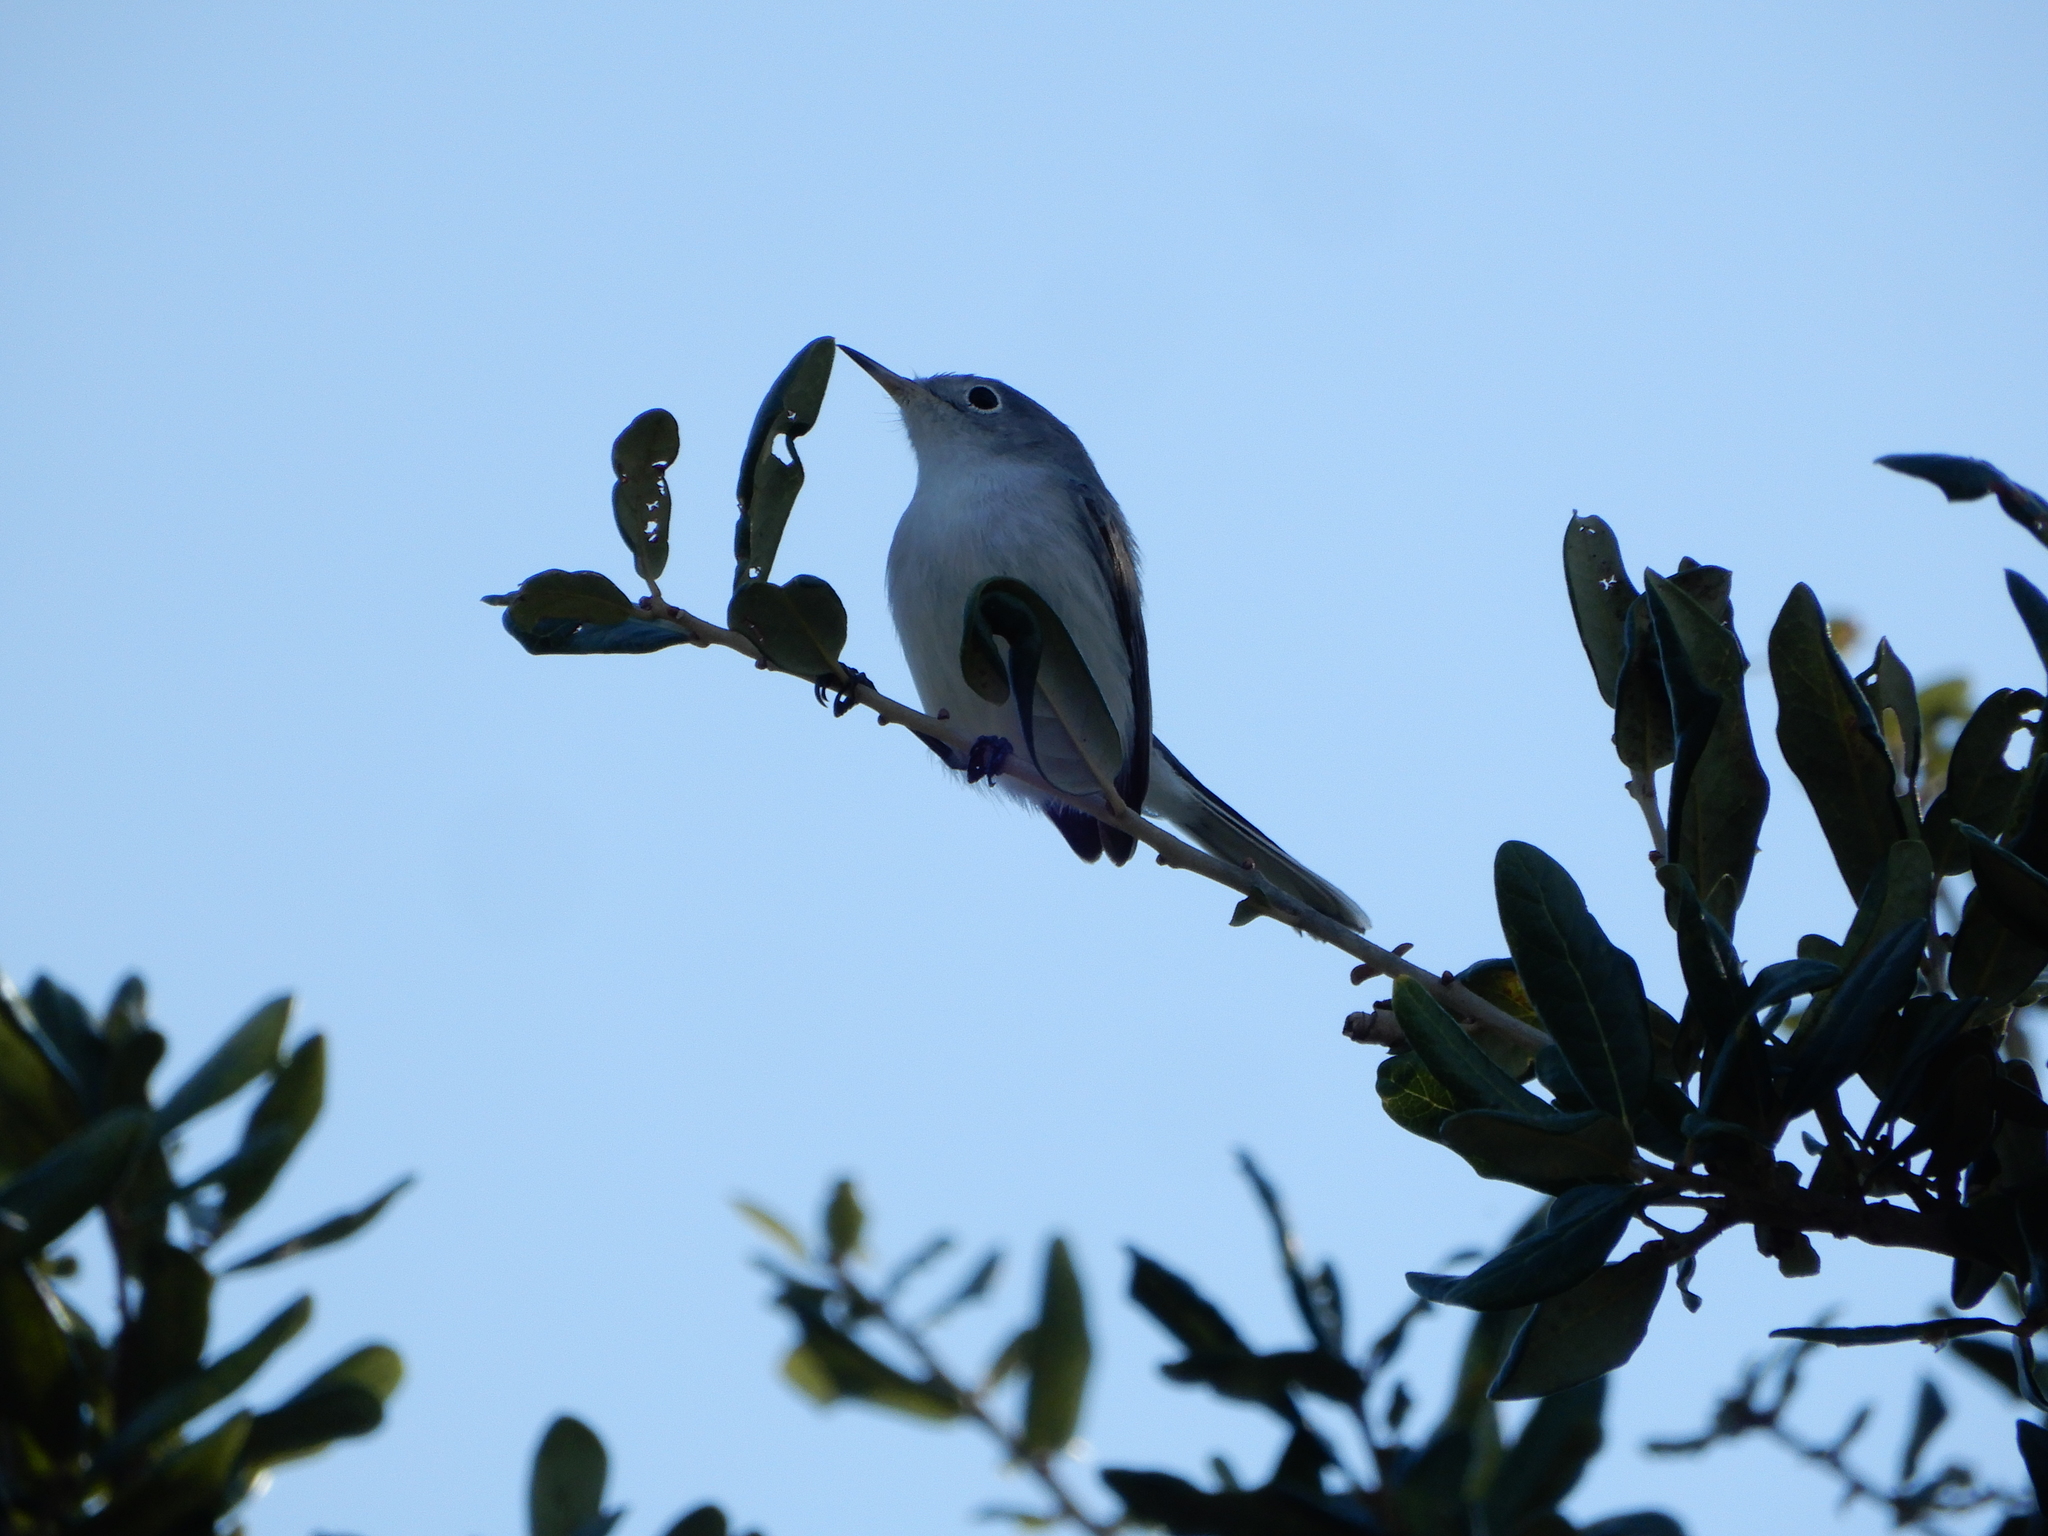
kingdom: Animalia
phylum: Chordata
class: Aves
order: Passeriformes
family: Polioptilidae
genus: Polioptila
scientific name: Polioptila caerulea
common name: Blue-gray gnatcatcher
